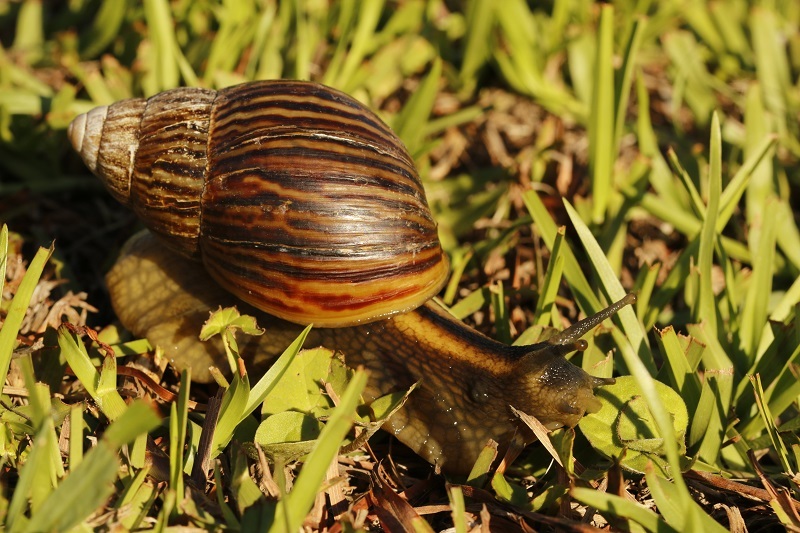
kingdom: Animalia
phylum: Mollusca
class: Gastropoda
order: Stylommatophora
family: Achatinidae
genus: Cochlitoma
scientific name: Cochlitoma zebra
